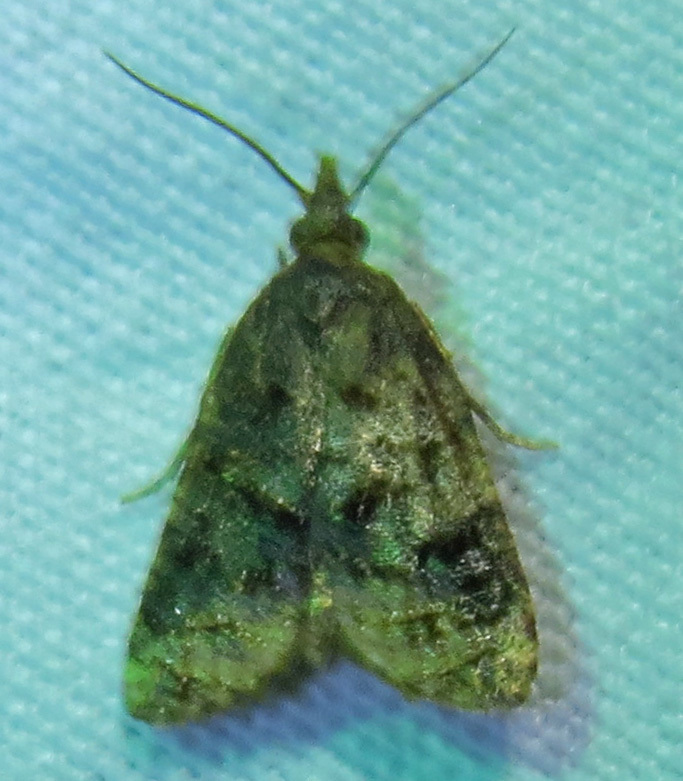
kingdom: Animalia
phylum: Arthropoda
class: Insecta
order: Lepidoptera
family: Tortricidae
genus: Platynota
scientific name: Platynota idaeusalis
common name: Tufted apple bud moth
